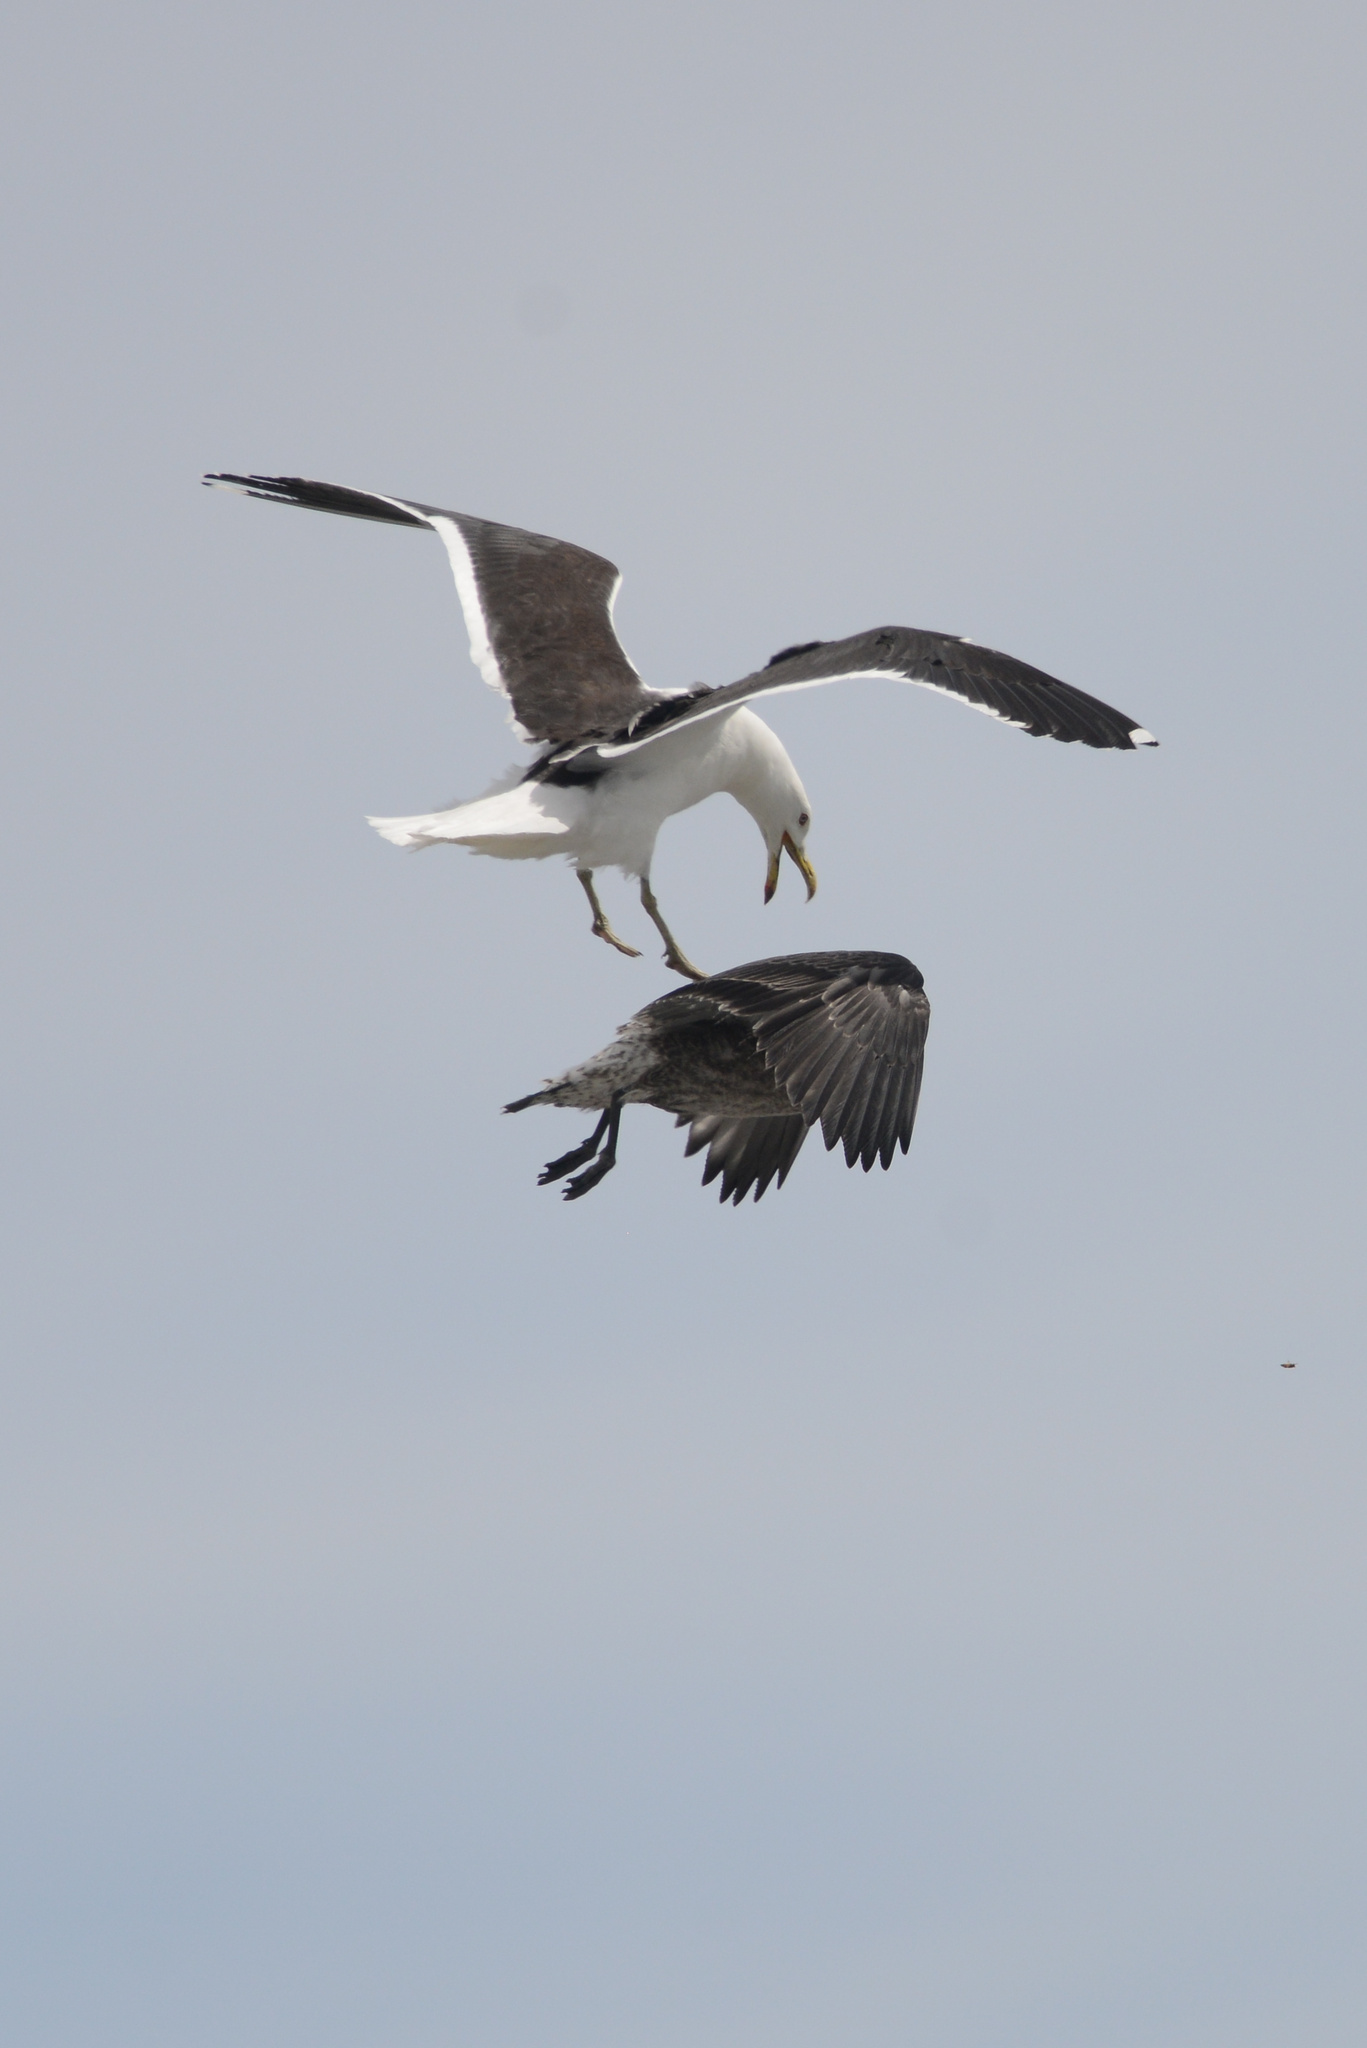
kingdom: Animalia
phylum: Chordata
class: Aves
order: Charadriiformes
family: Laridae
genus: Larus
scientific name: Larus dominicanus
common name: Kelp gull
